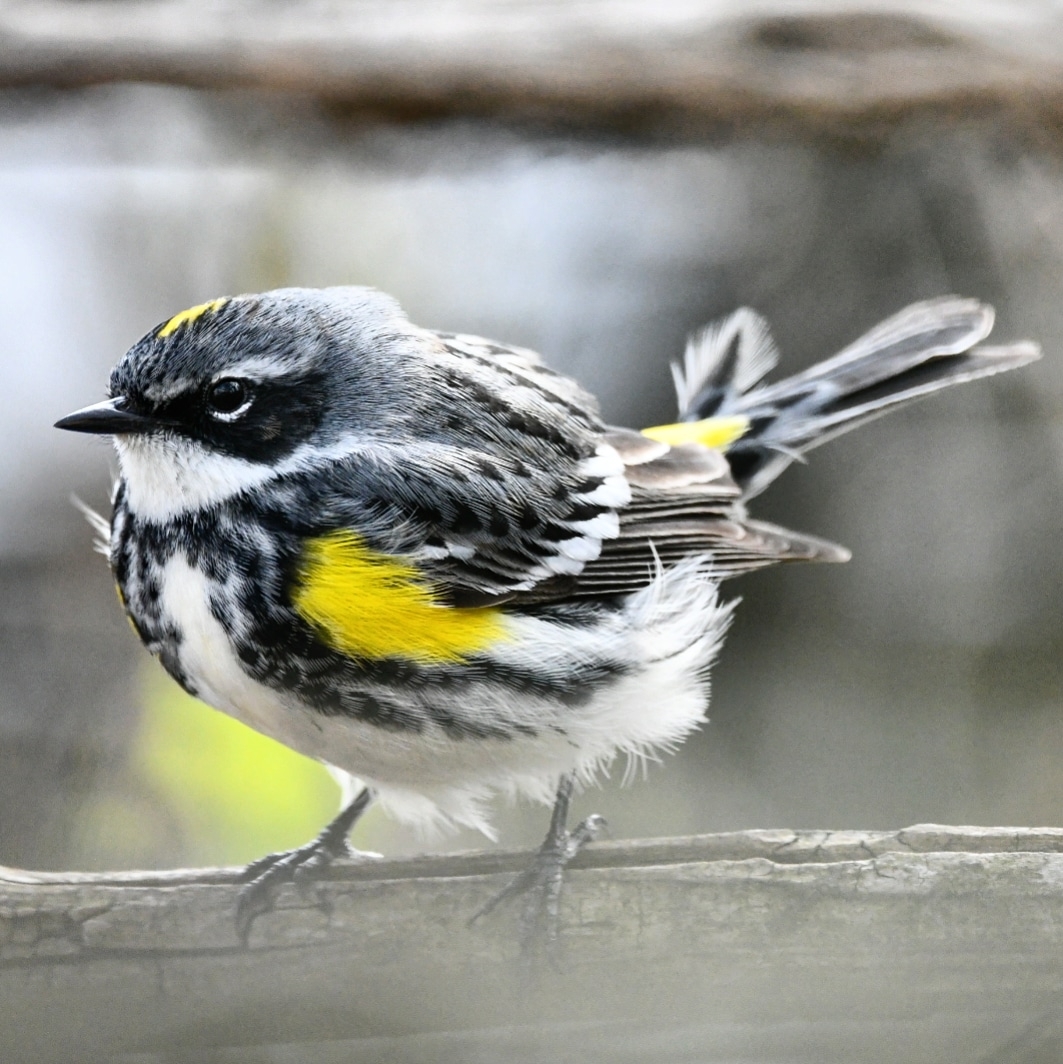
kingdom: Animalia
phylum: Chordata
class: Aves
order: Passeriformes
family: Parulidae
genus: Setophaga
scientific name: Setophaga coronata
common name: Myrtle warbler
